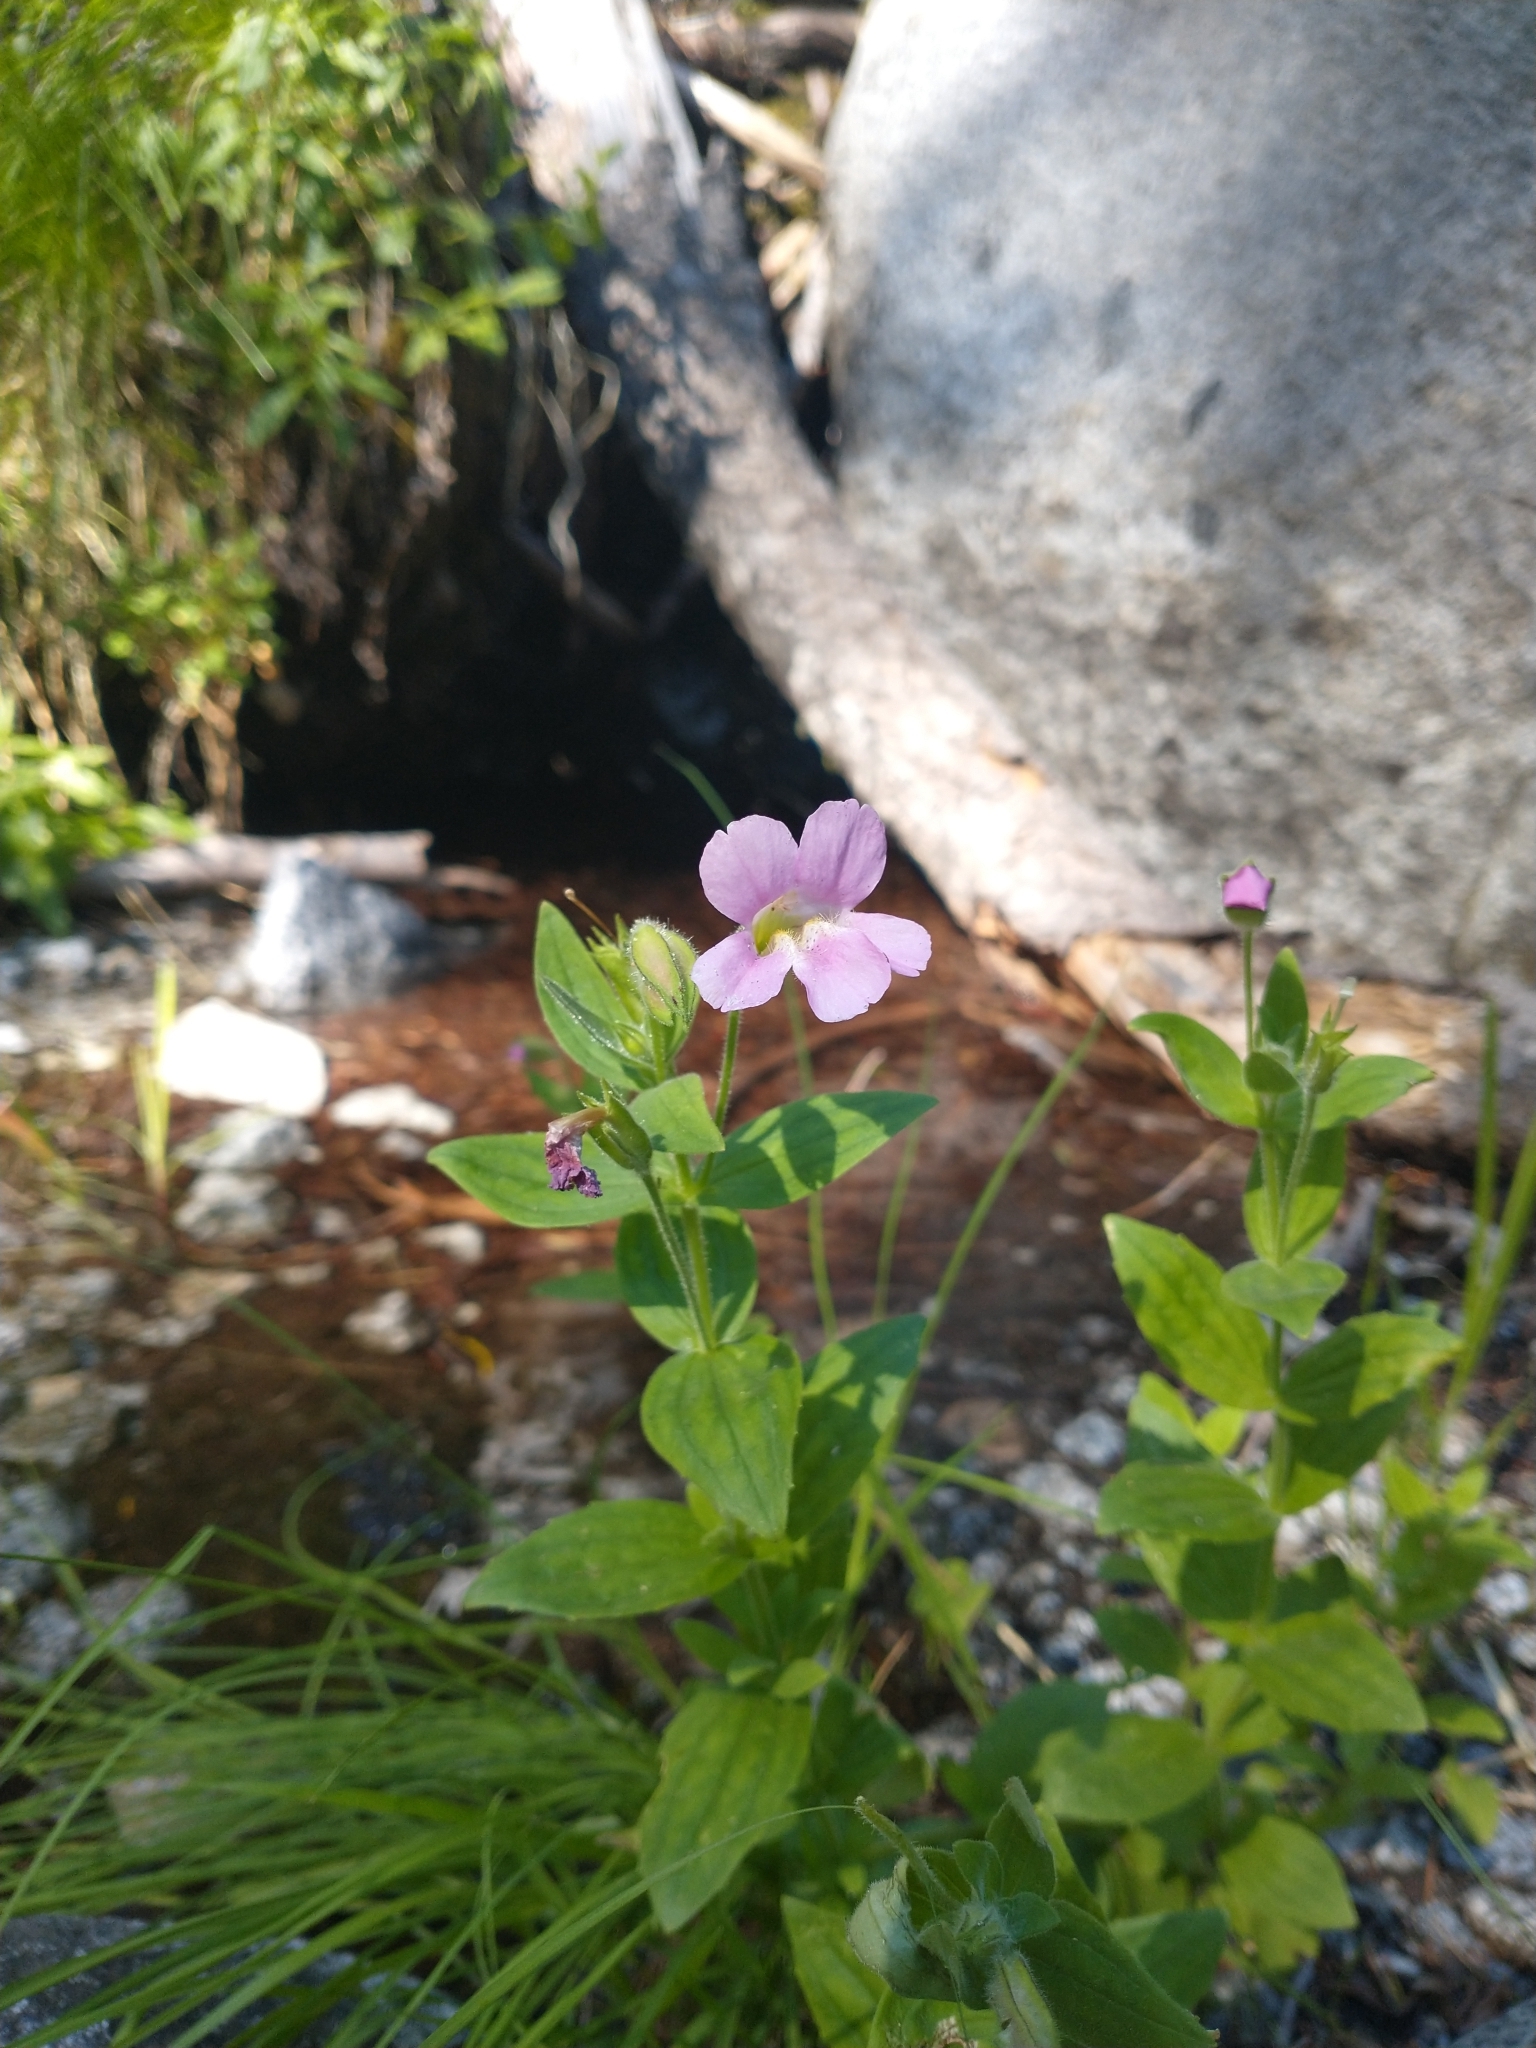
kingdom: Plantae
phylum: Tracheophyta
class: Magnoliopsida
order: Lamiales
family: Phrymaceae
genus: Erythranthe
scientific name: Erythranthe lewisii
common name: Lewis's monkey-flower
